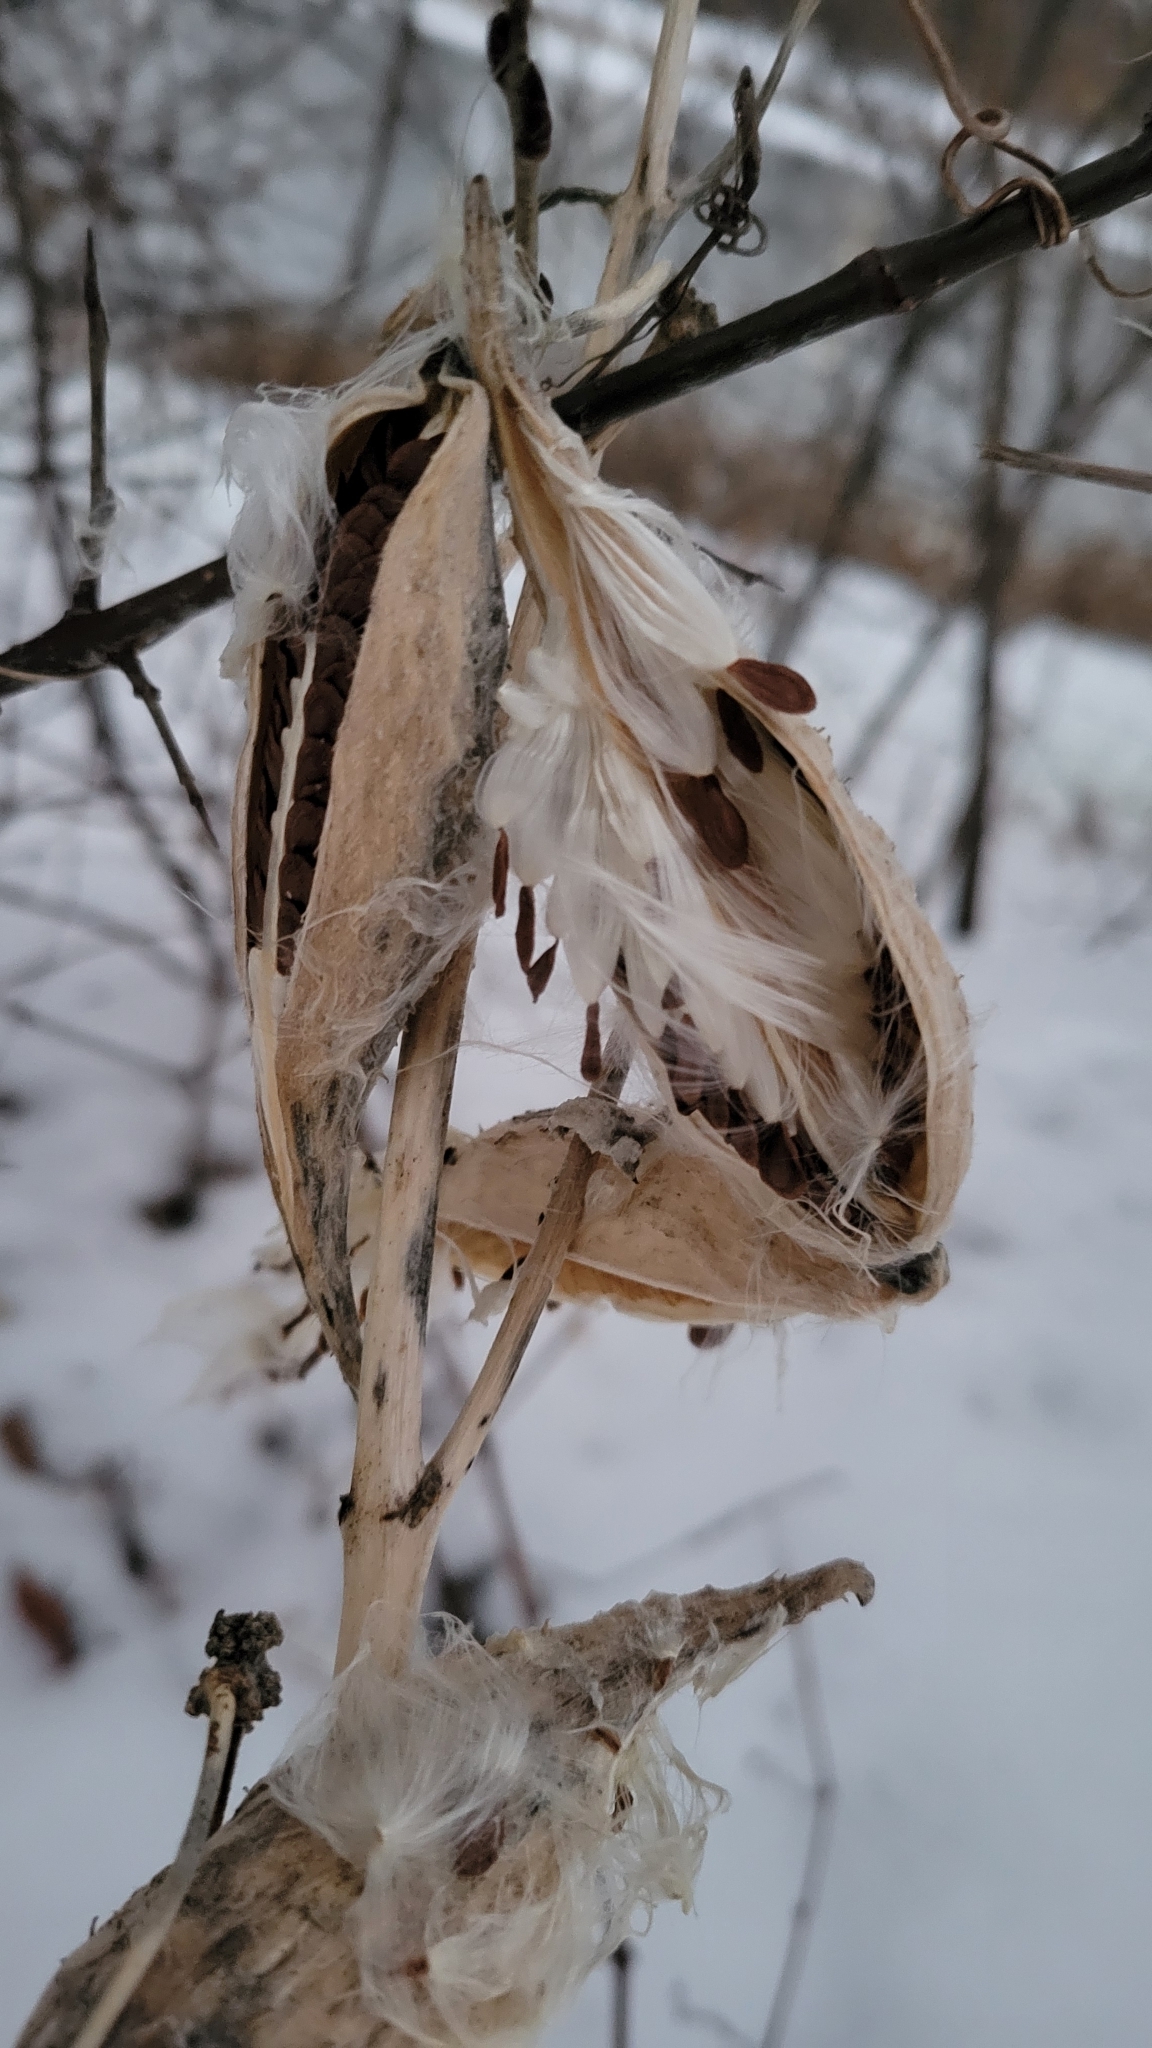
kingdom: Plantae
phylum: Tracheophyta
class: Magnoliopsida
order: Gentianales
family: Apocynaceae
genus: Asclepias
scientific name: Asclepias syriaca
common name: Common milkweed
